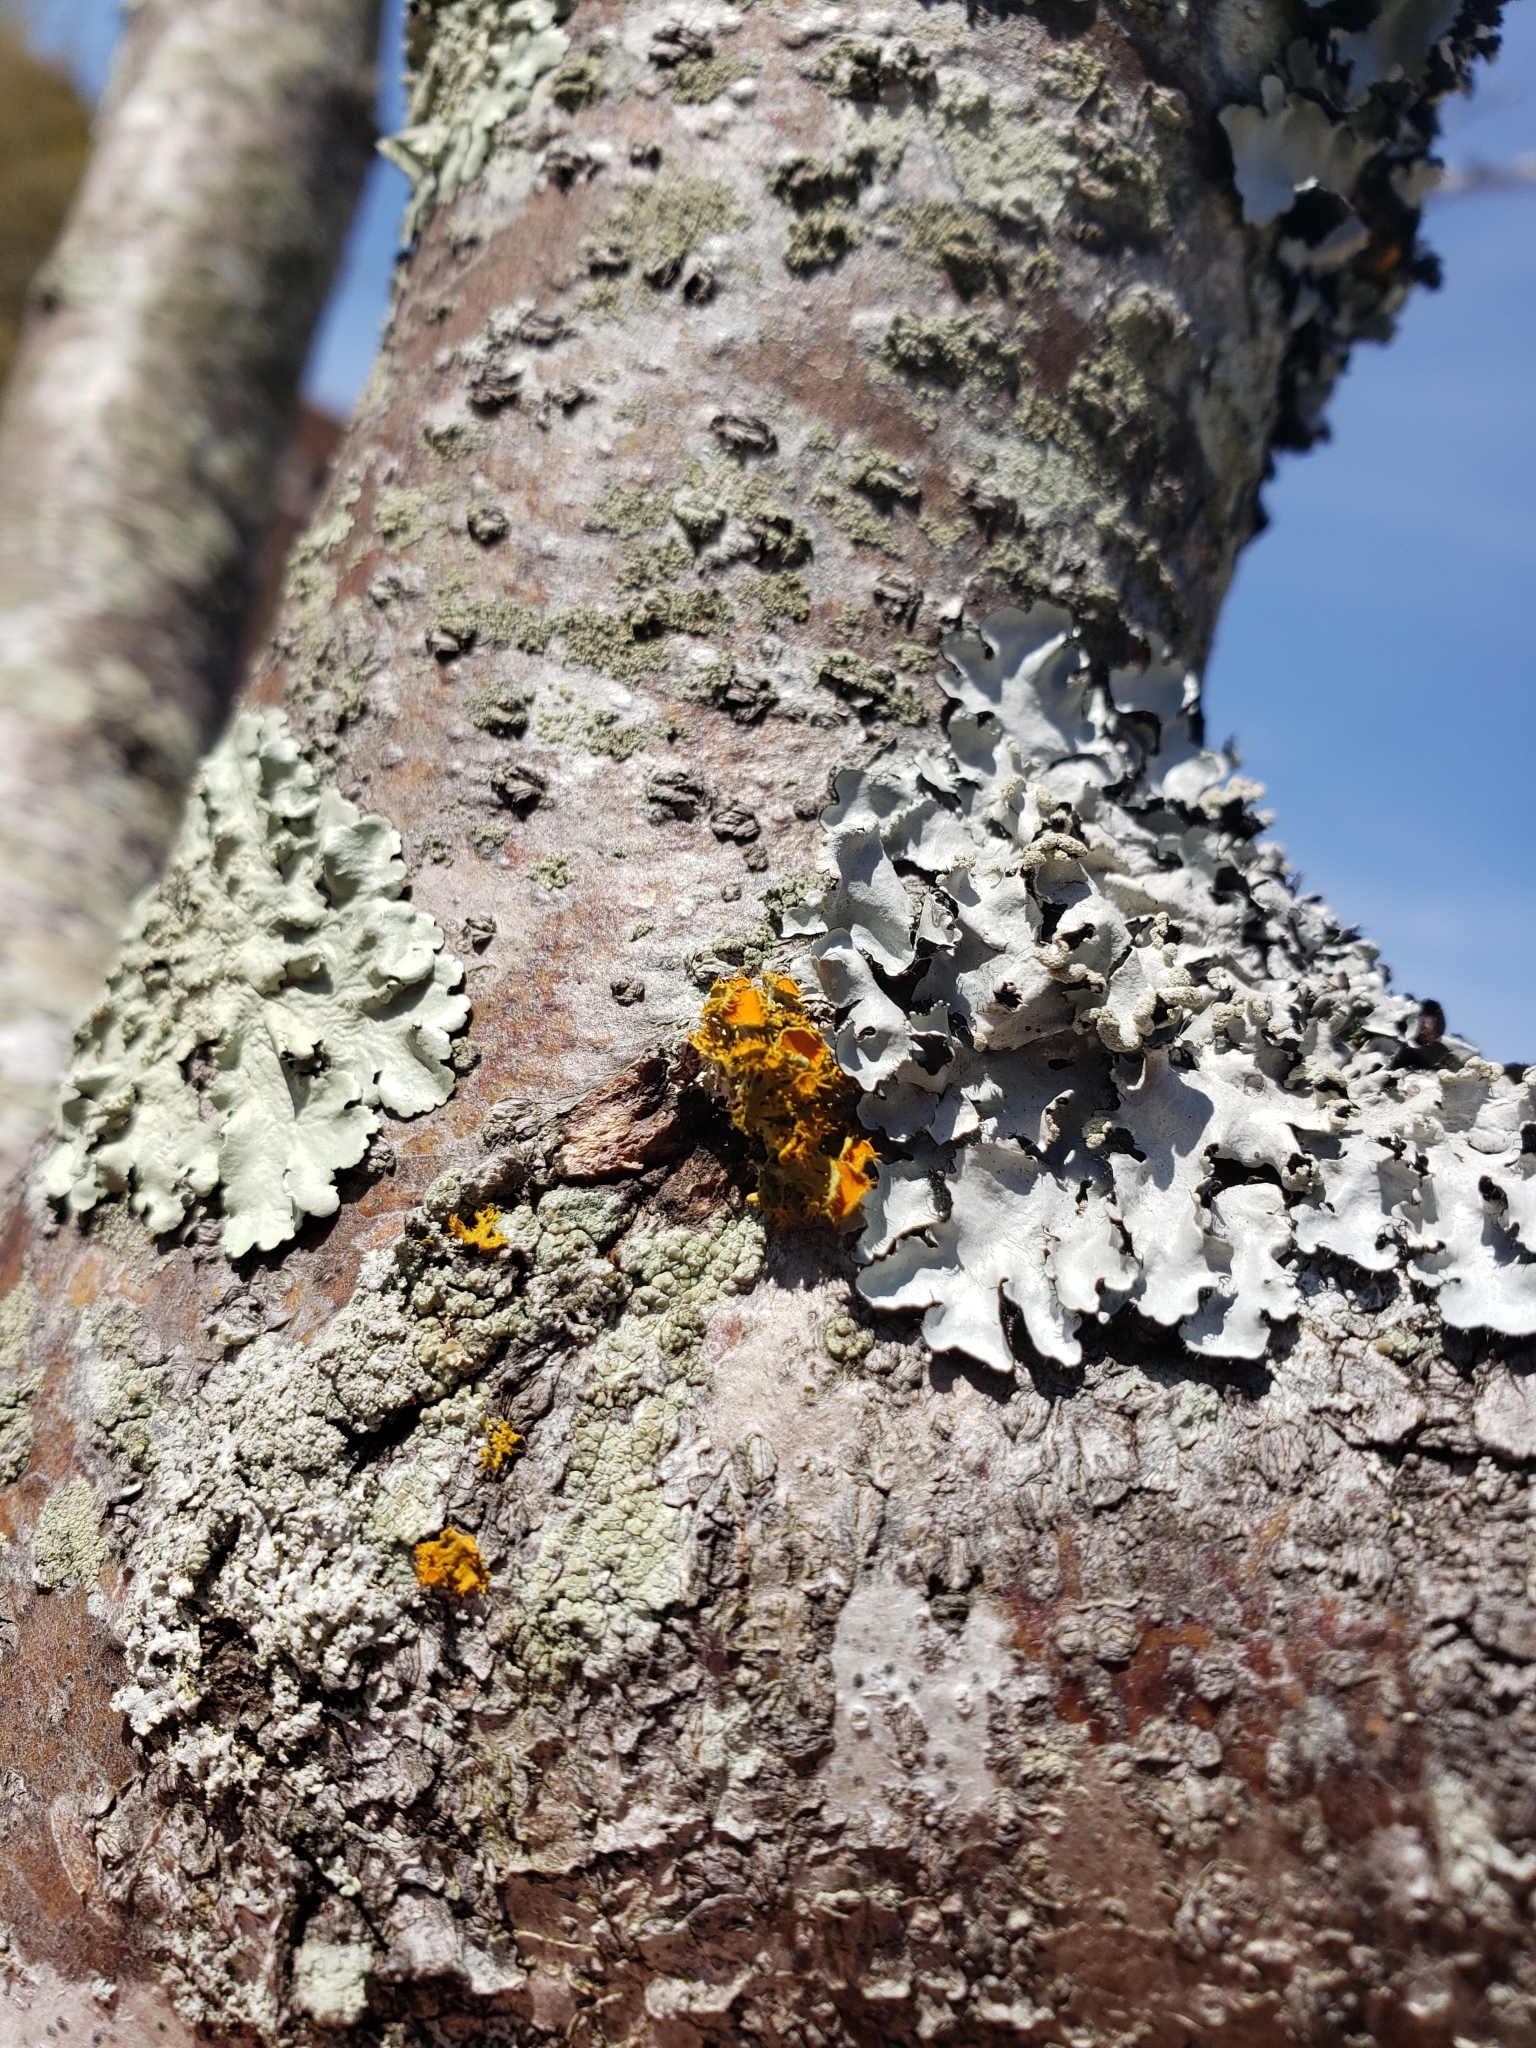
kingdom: Fungi
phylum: Ascomycota
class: Lecanoromycetes
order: Teloschistales
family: Teloschistaceae
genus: Niorma
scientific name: Niorma chrysophthalma
